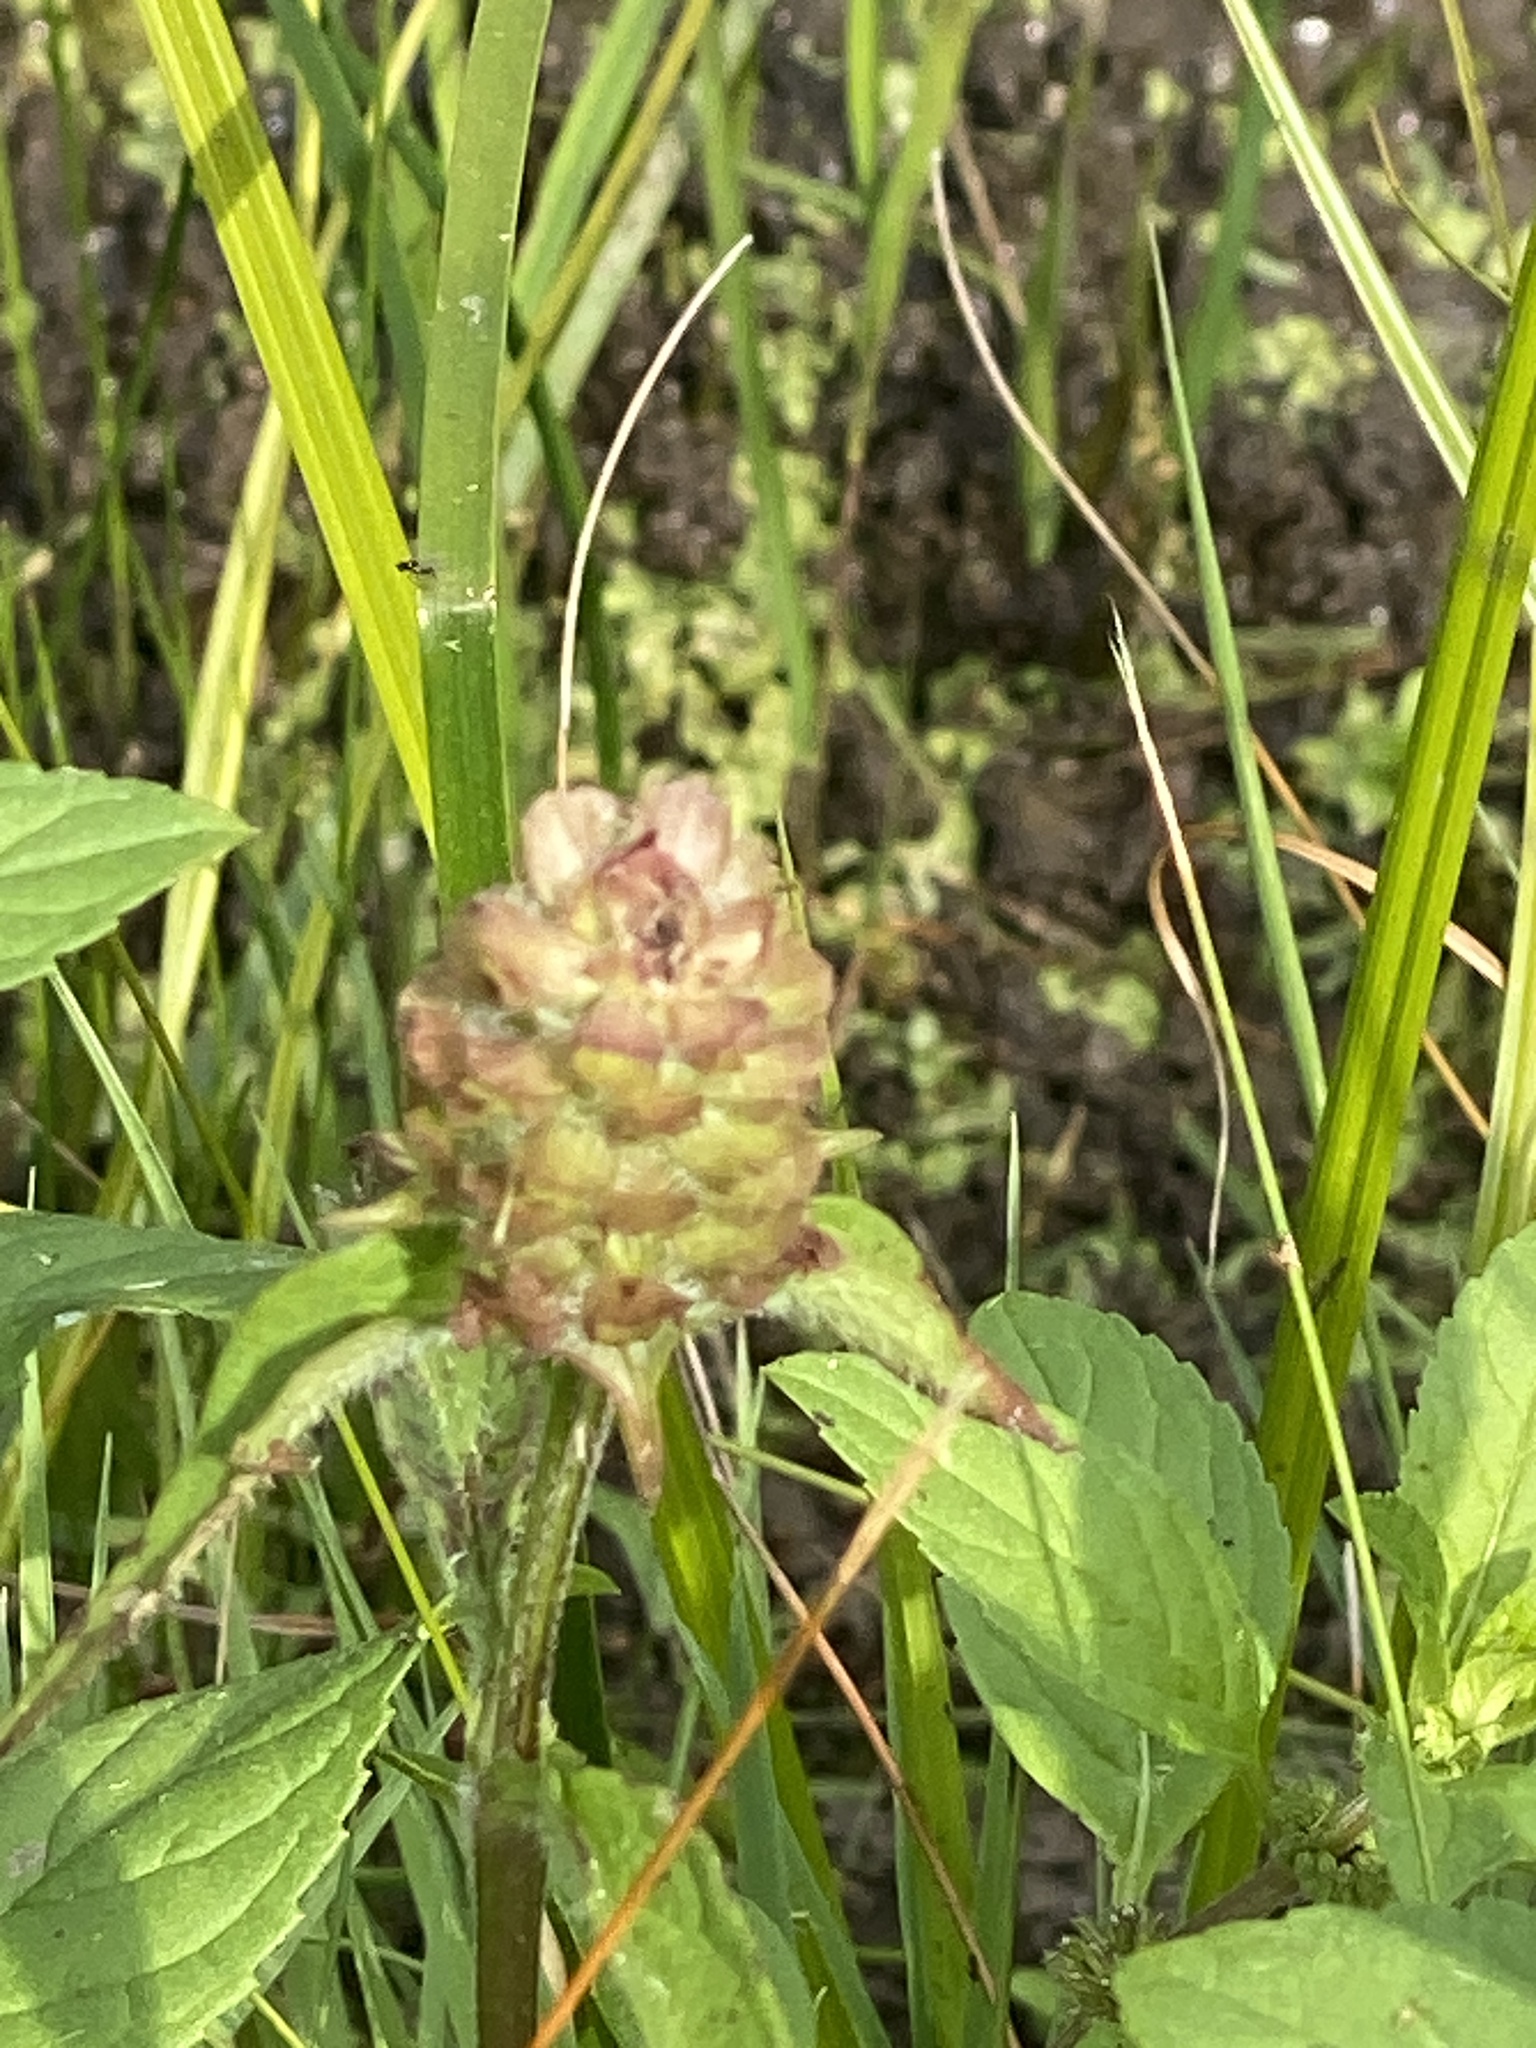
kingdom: Plantae
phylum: Tracheophyta
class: Magnoliopsida
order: Lamiales
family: Lamiaceae
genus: Prunella
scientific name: Prunella vulgaris
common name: Heal-all
